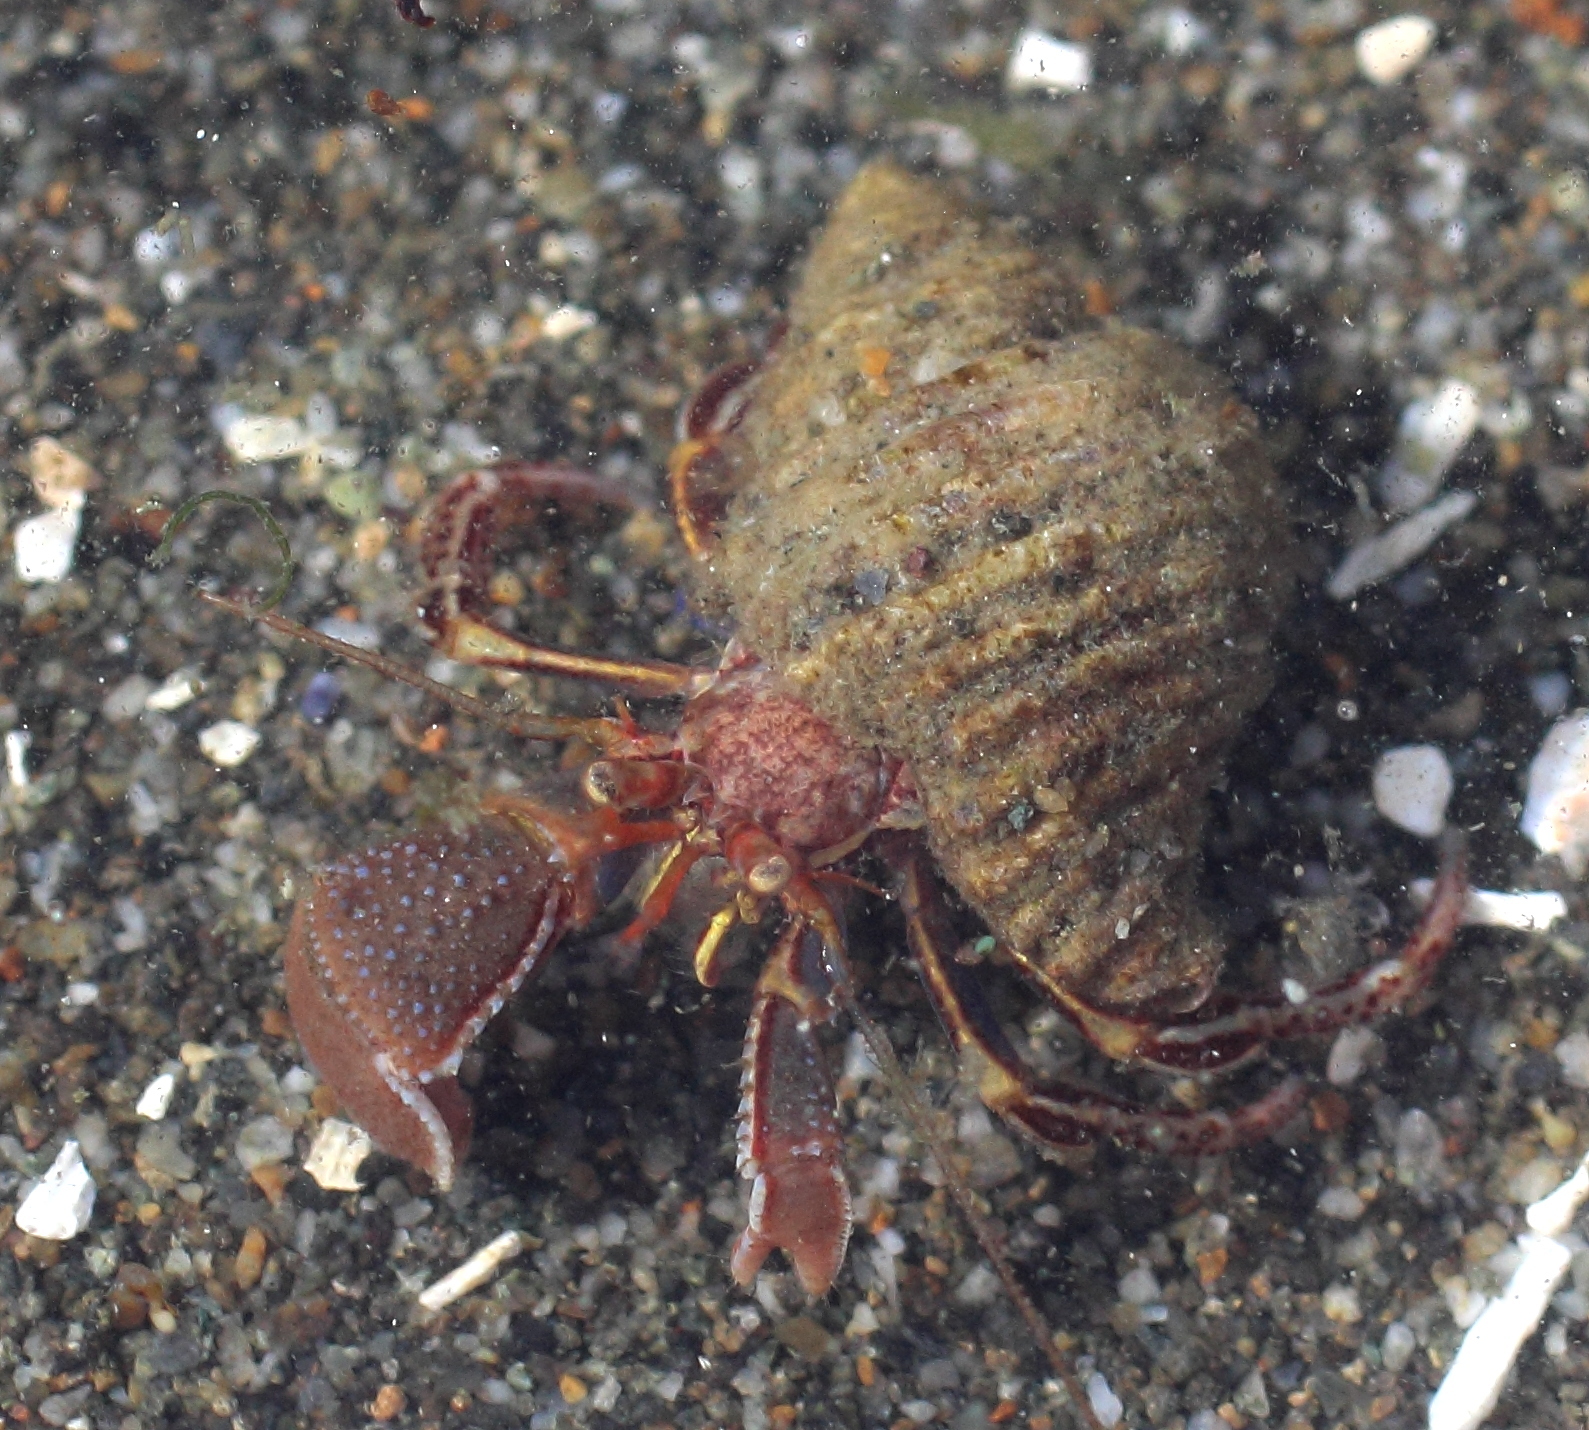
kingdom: Animalia
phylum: Arthropoda
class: Malacostraca
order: Decapoda
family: Paguridae
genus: Elassochirus
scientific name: Elassochirus tenuimanus
